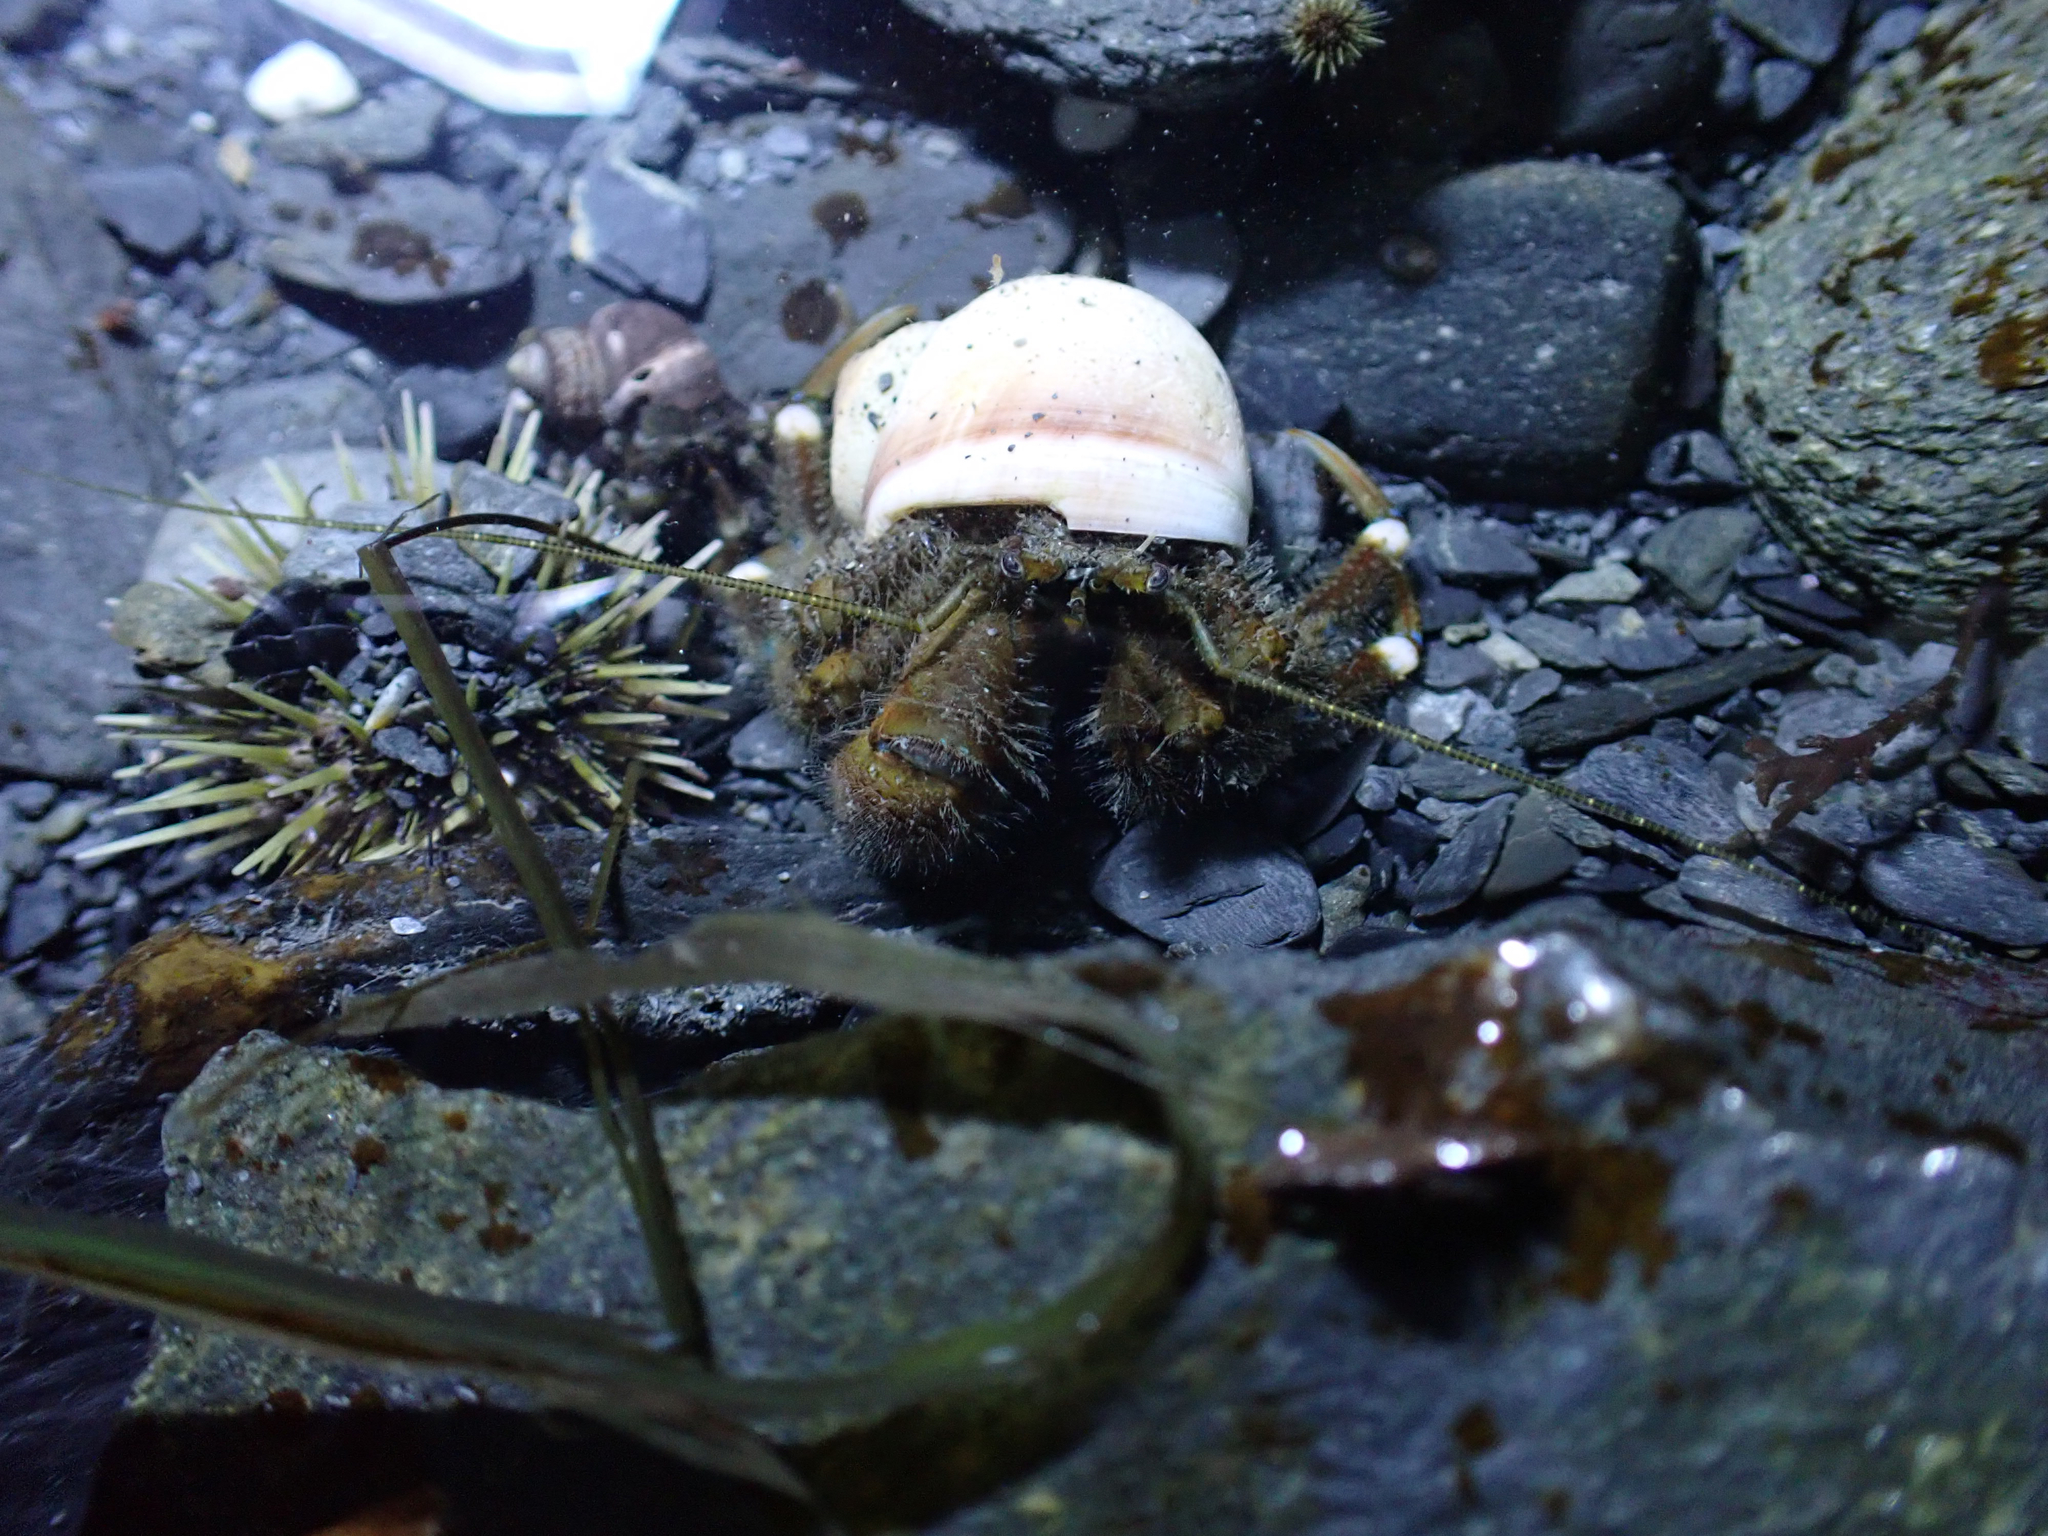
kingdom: Animalia
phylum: Arthropoda
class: Malacostraca
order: Decapoda
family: Paguridae
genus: Pagurus
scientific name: Pagurus hirsutiusculus
